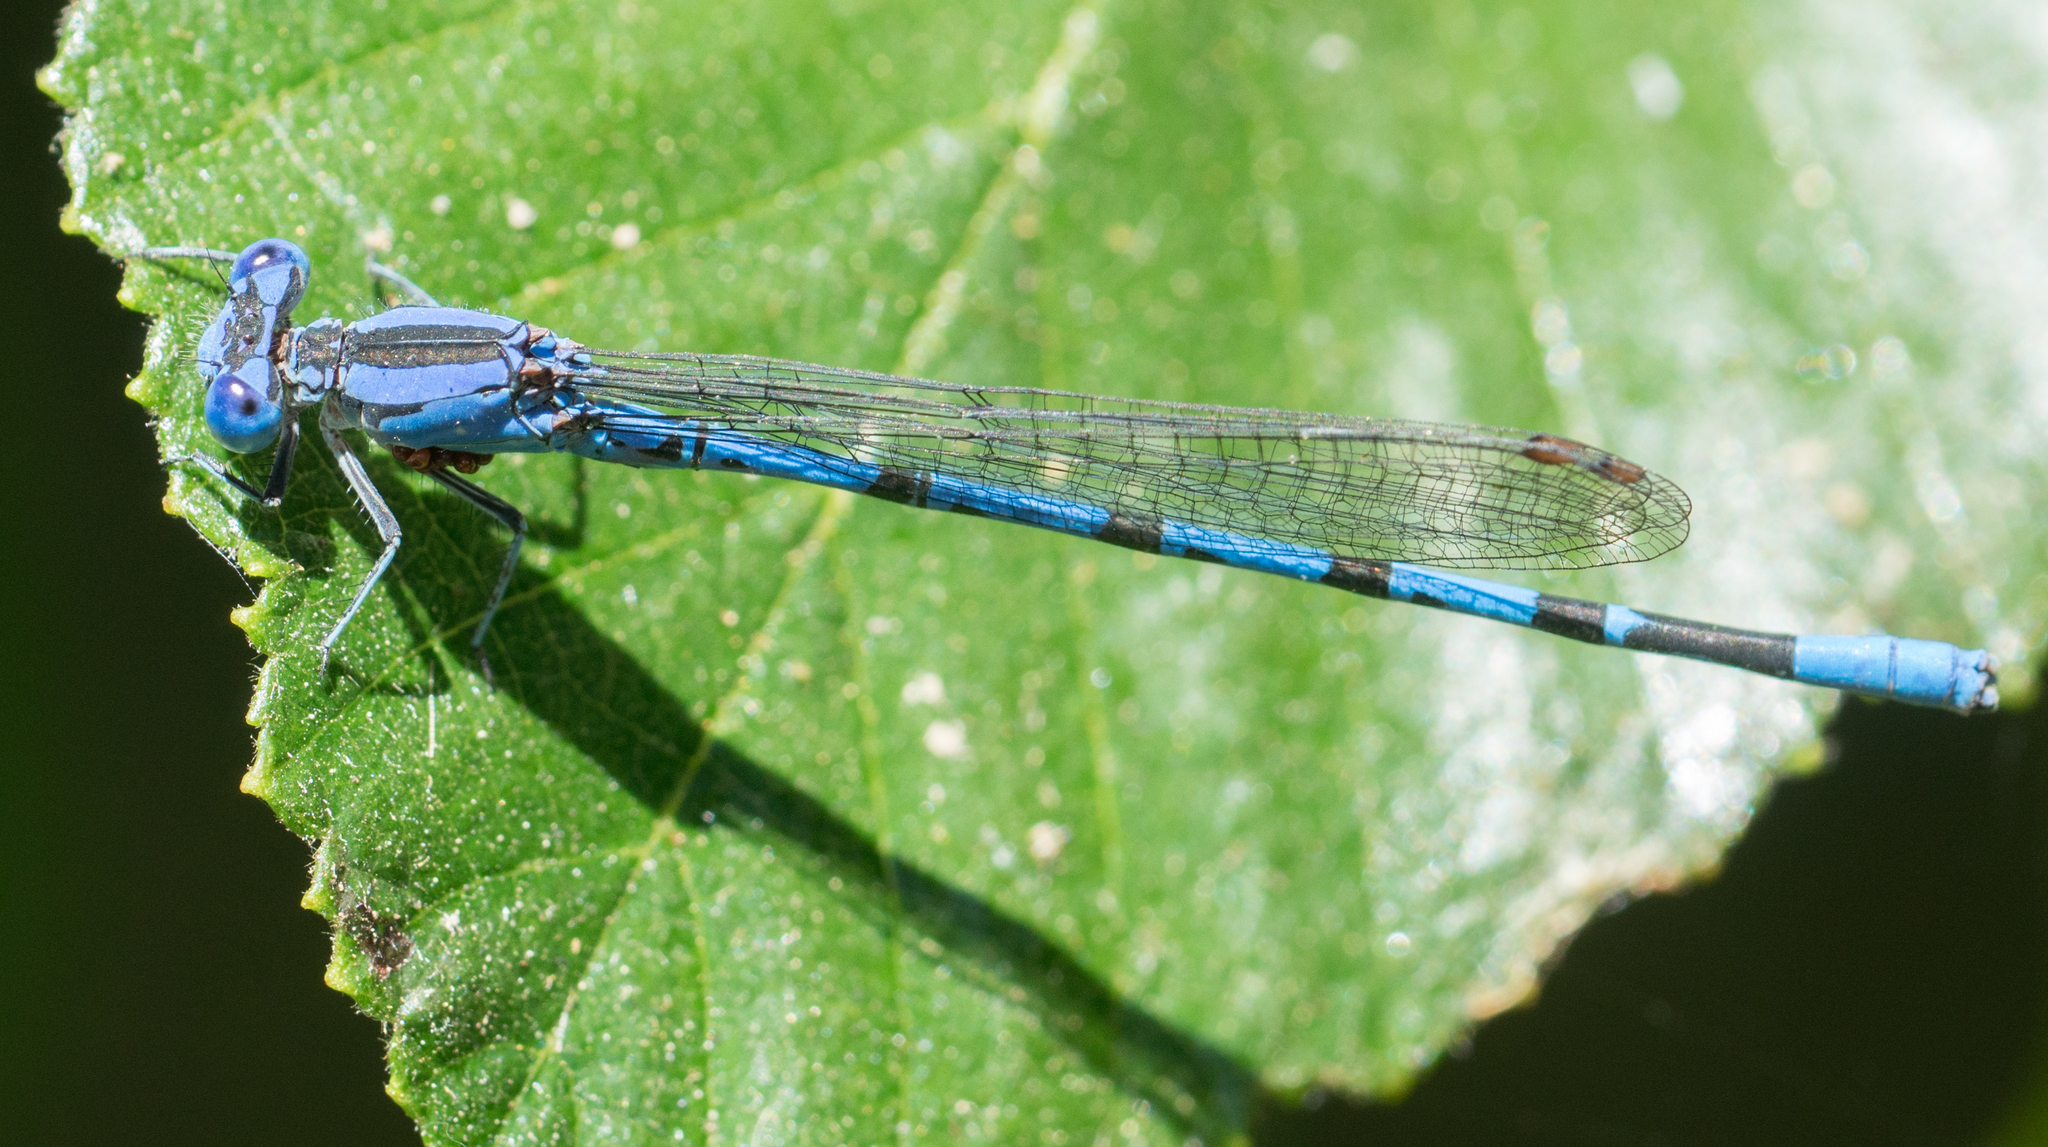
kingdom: Animalia
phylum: Arthropoda
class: Insecta
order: Odonata
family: Coenagrionidae
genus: Argia
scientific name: Argia vivida
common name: Vivid dancer
